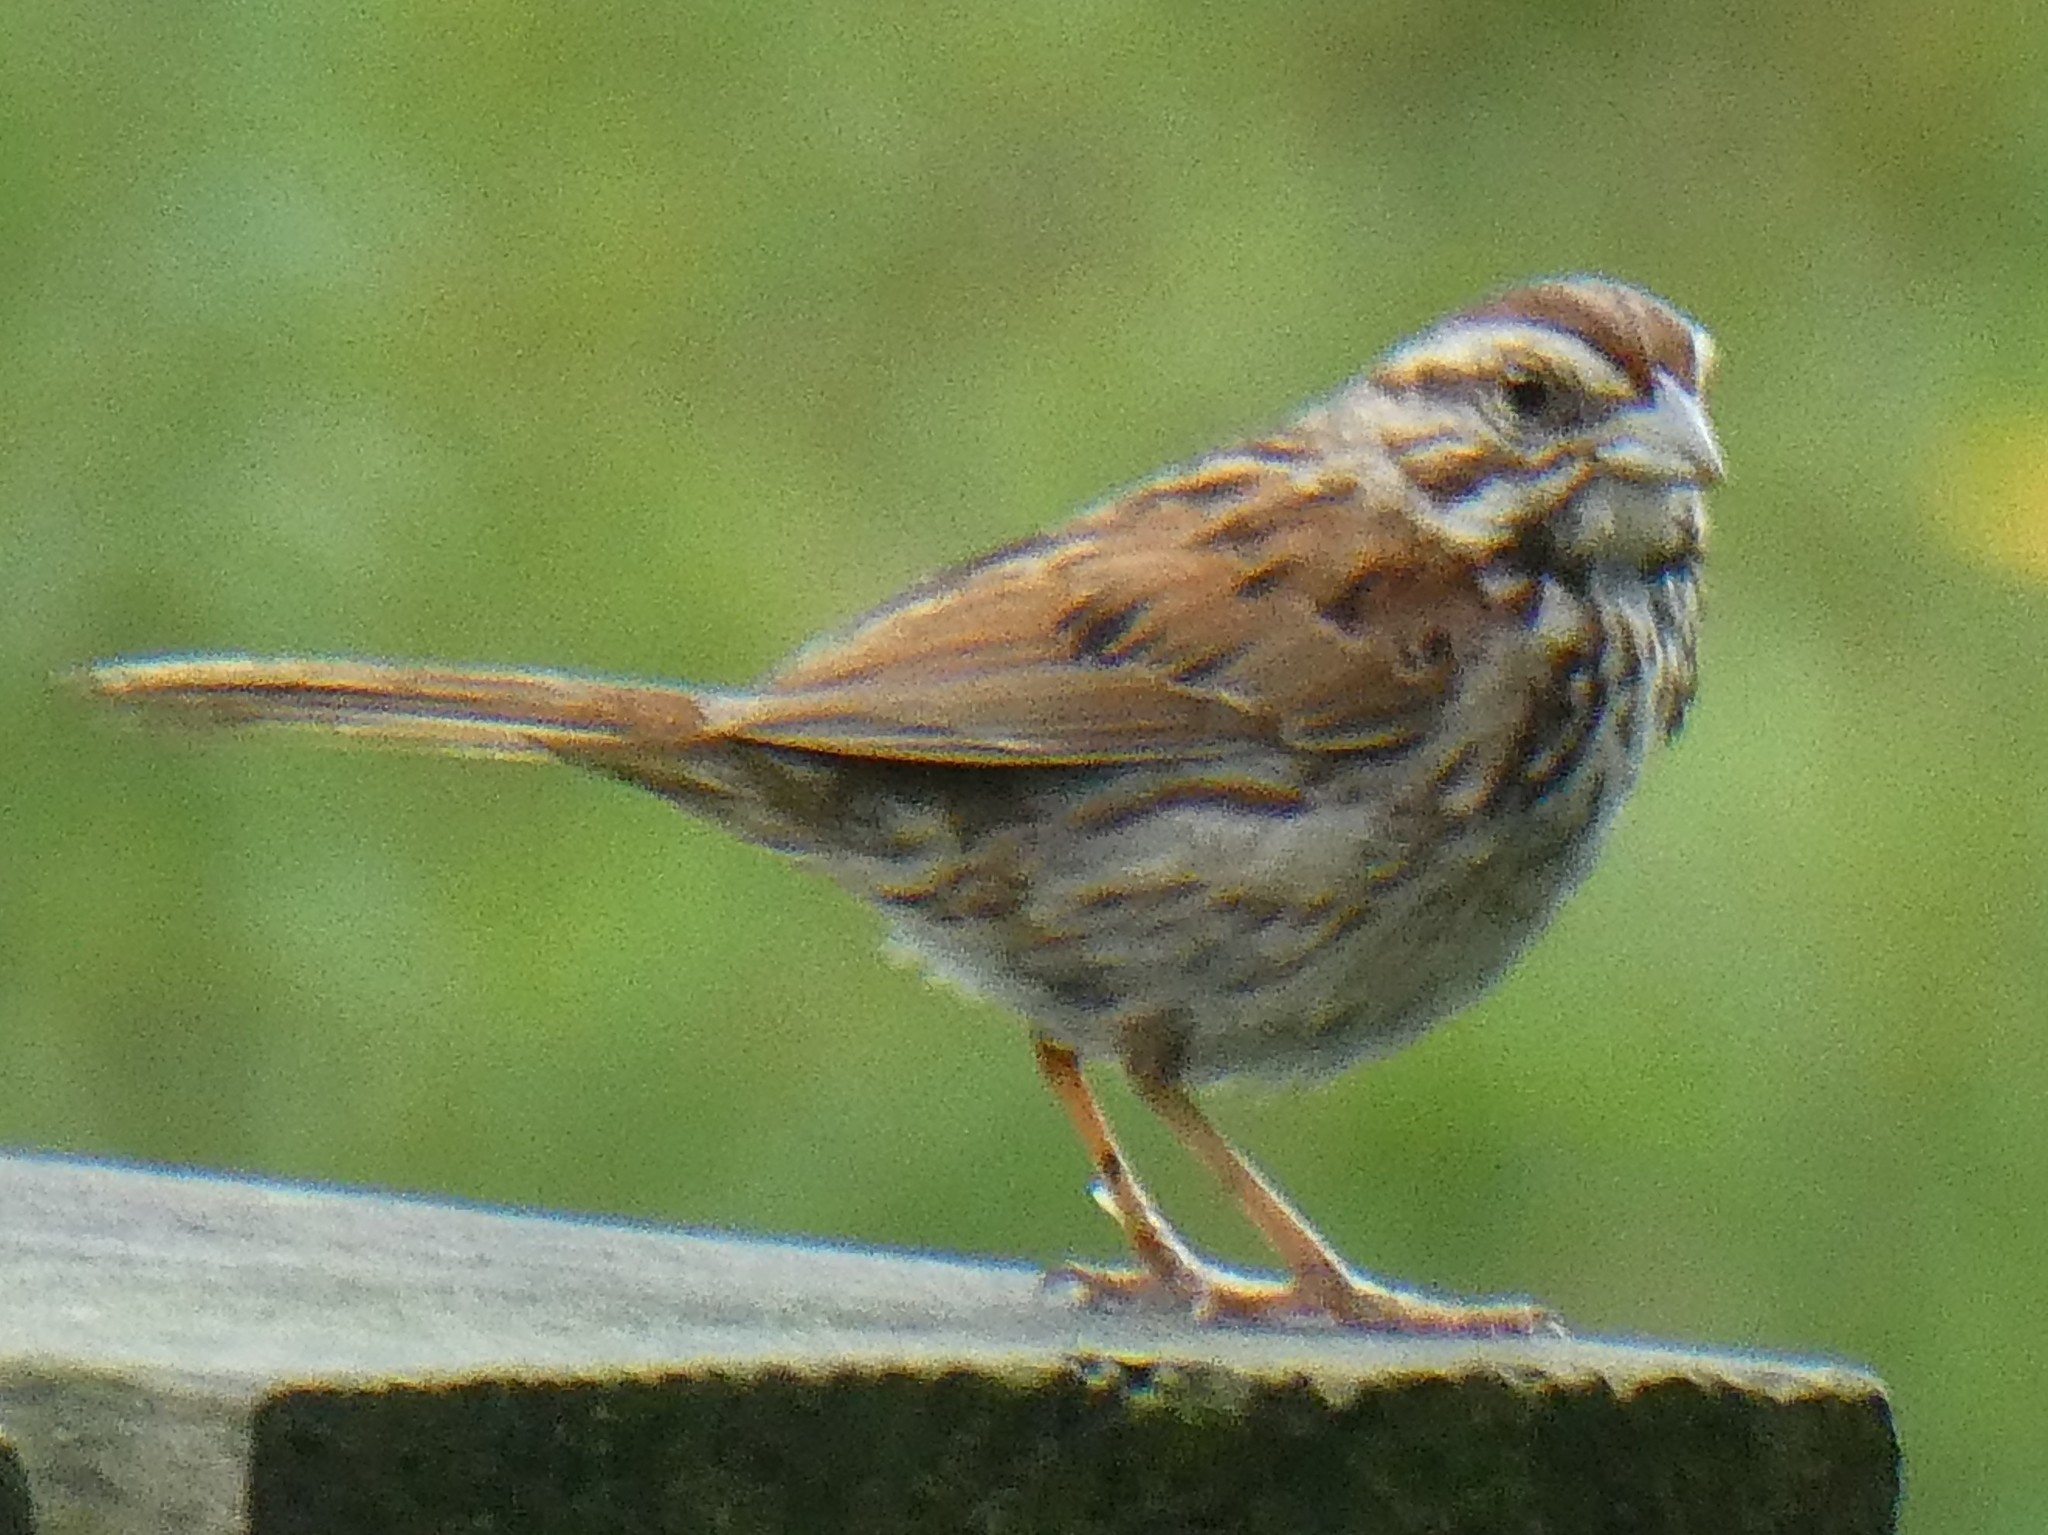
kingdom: Animalia
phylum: Chordata
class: Aves
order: Passeriformes
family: Passerellidae
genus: Melospiza
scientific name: Melospiza melodia
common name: Song sparrow
